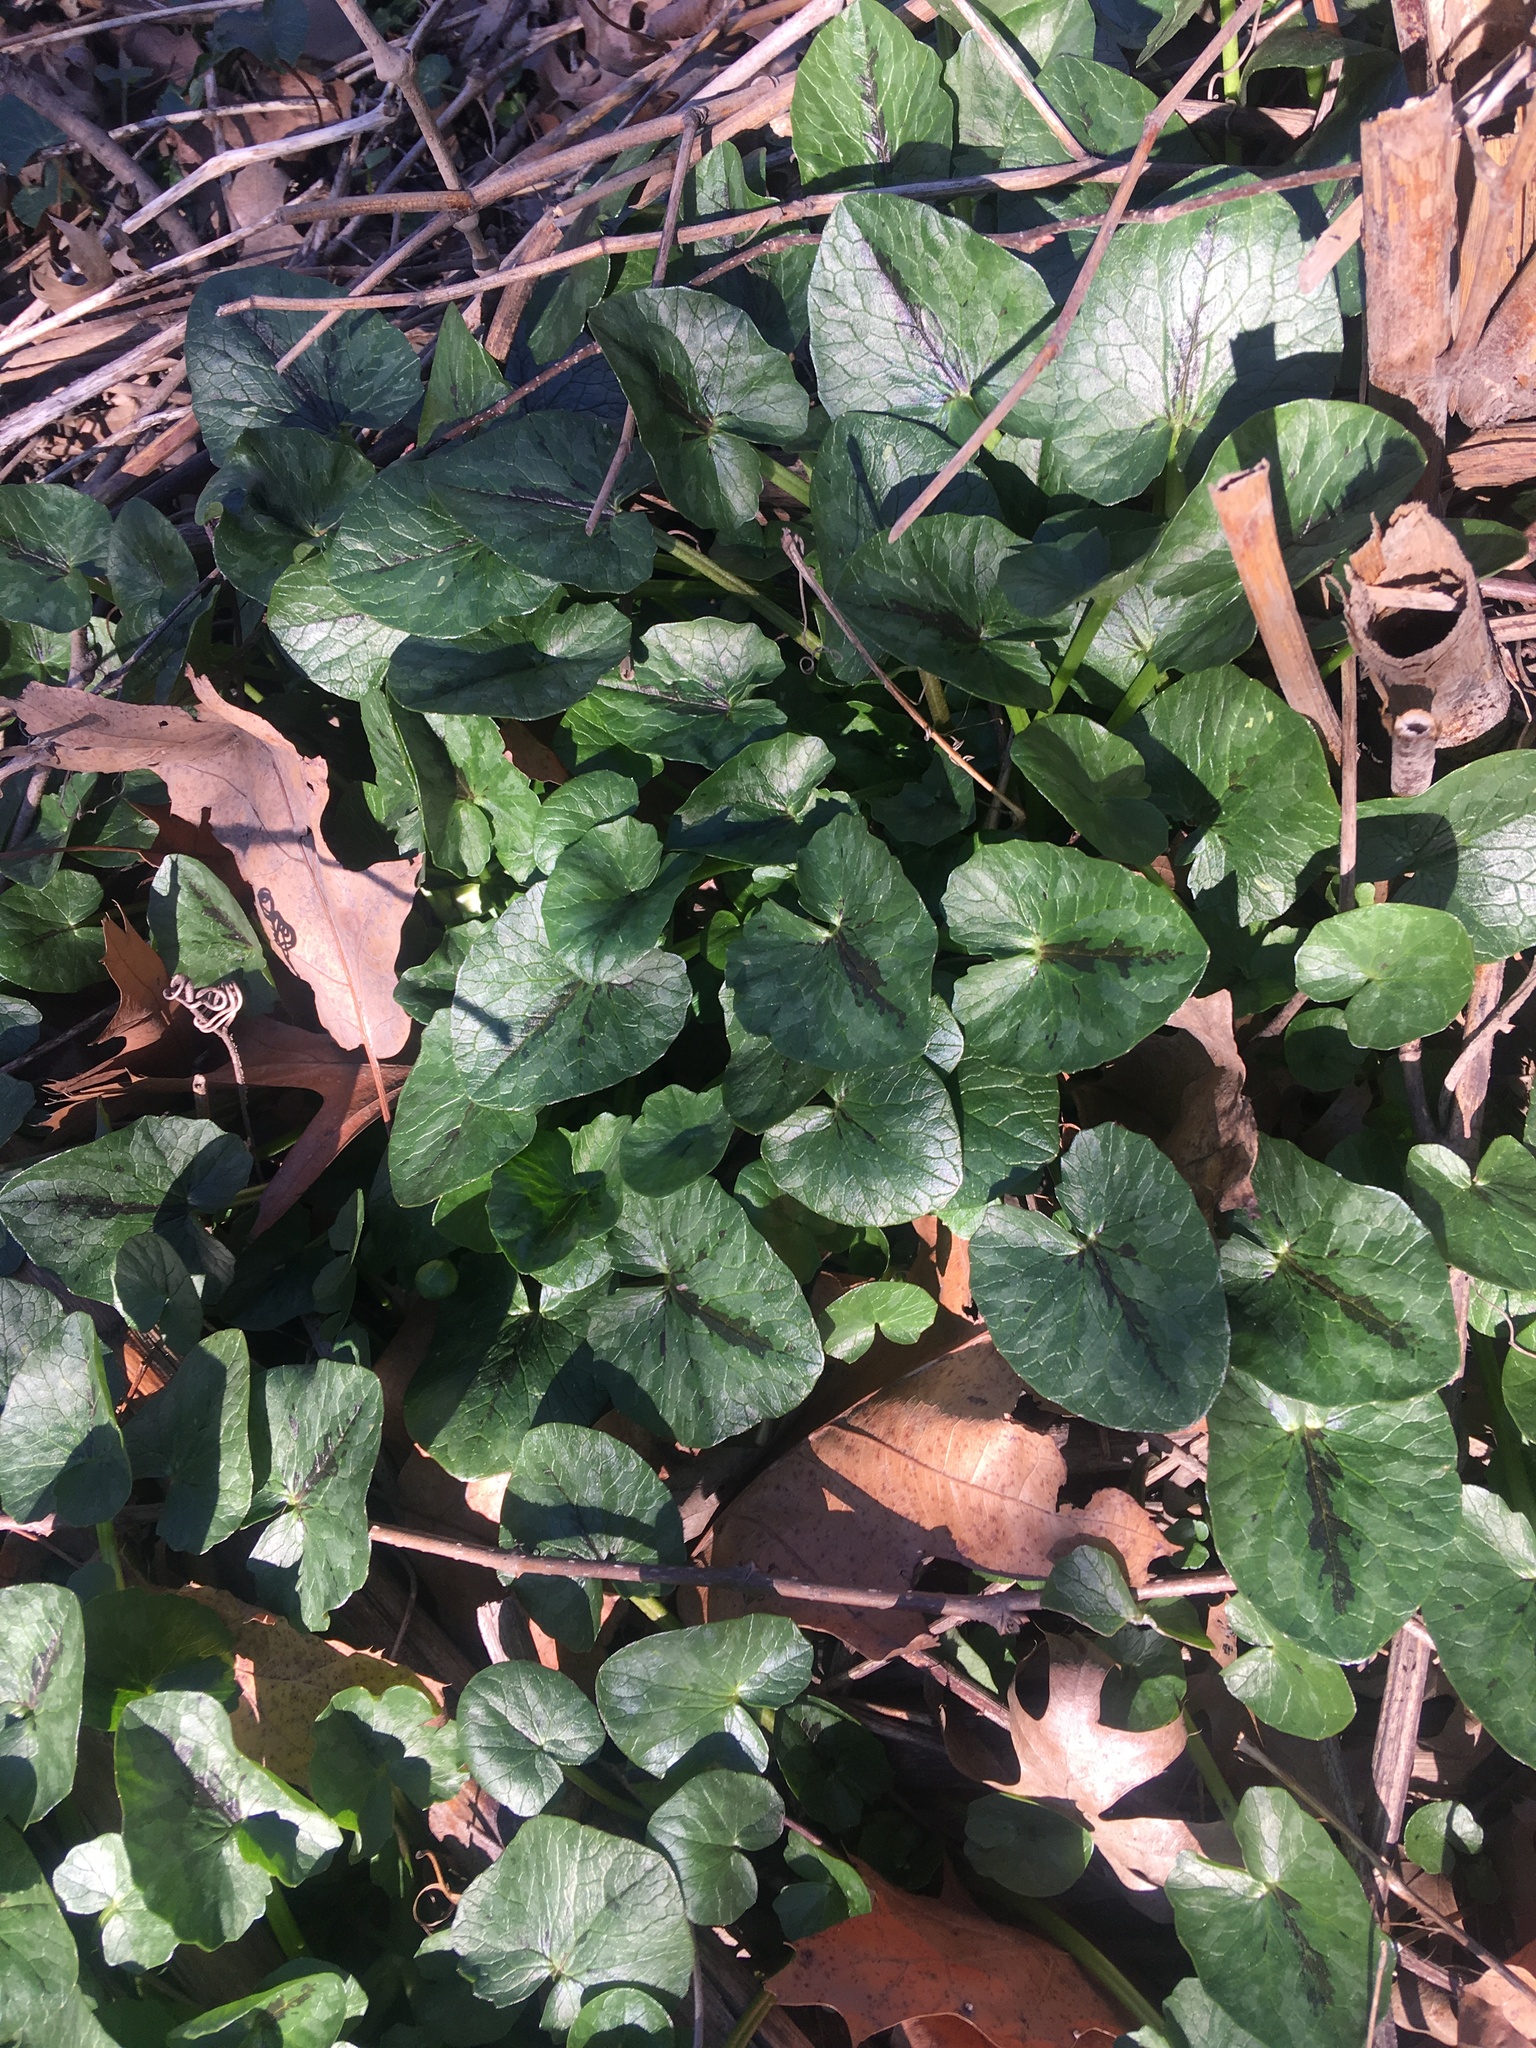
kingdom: Plantae
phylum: Tracheophyta
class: Magnoliopsida
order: Ranunculales
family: Ranunculaceae
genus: Ficaria
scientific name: Ficaria verna
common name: Lesser celandine
